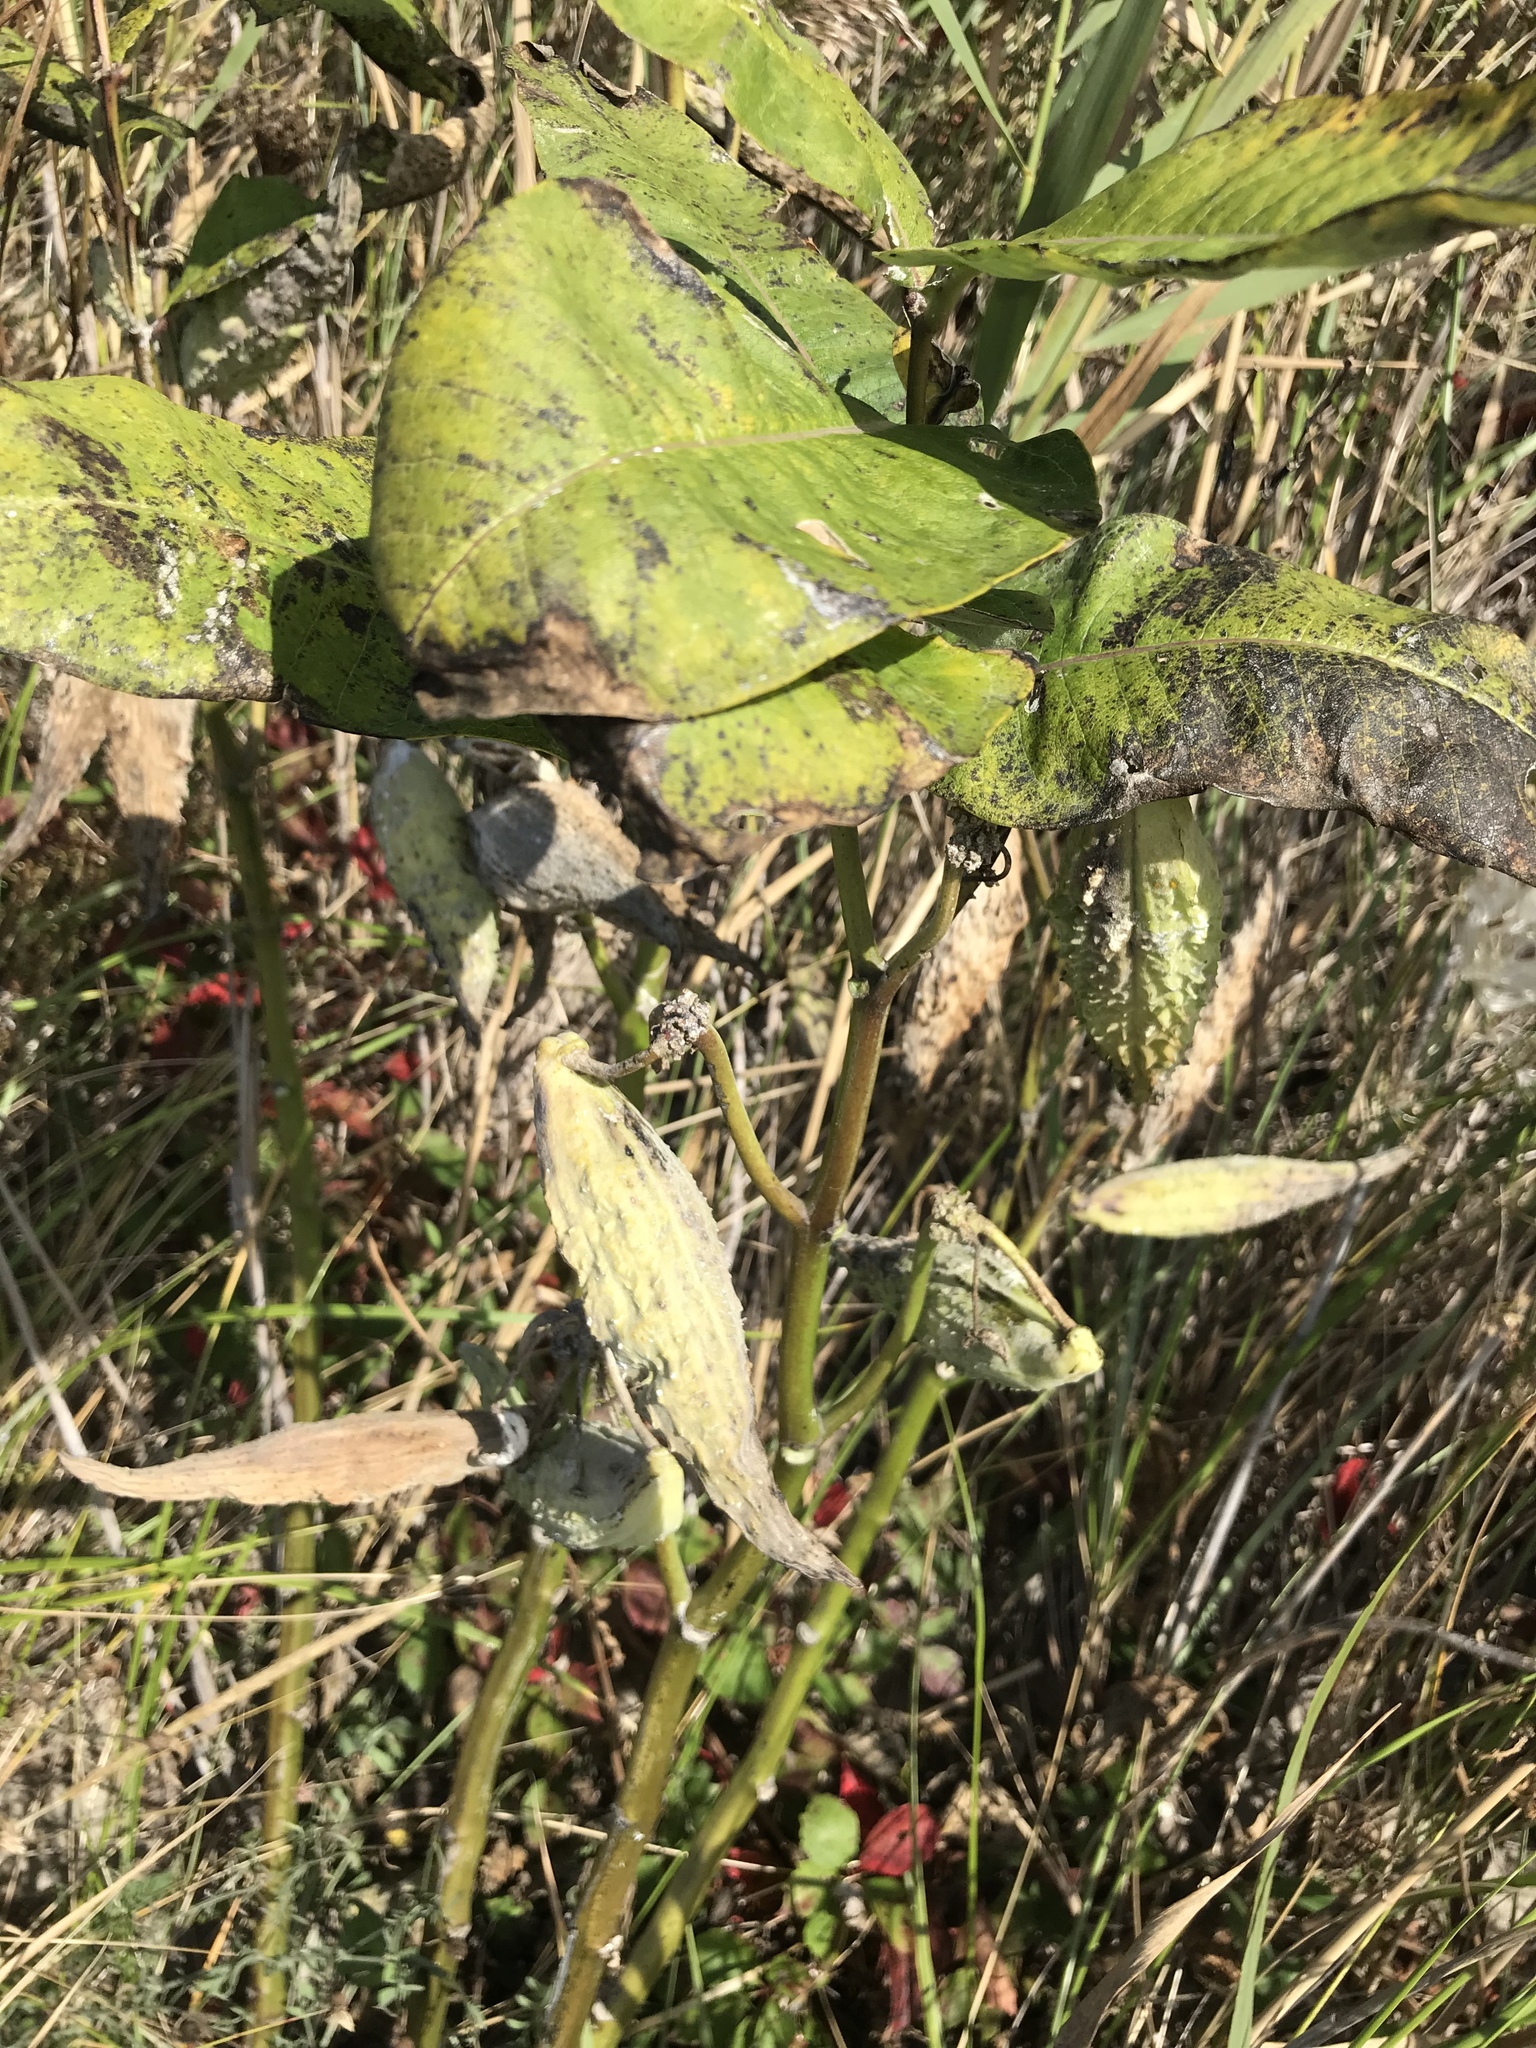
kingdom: Plantae
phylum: Tracheophyta
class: Magnoliopsida
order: Gentianales
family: Apocynaceae
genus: Asclepias
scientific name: Asclepias syriaca
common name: Common milkweed
